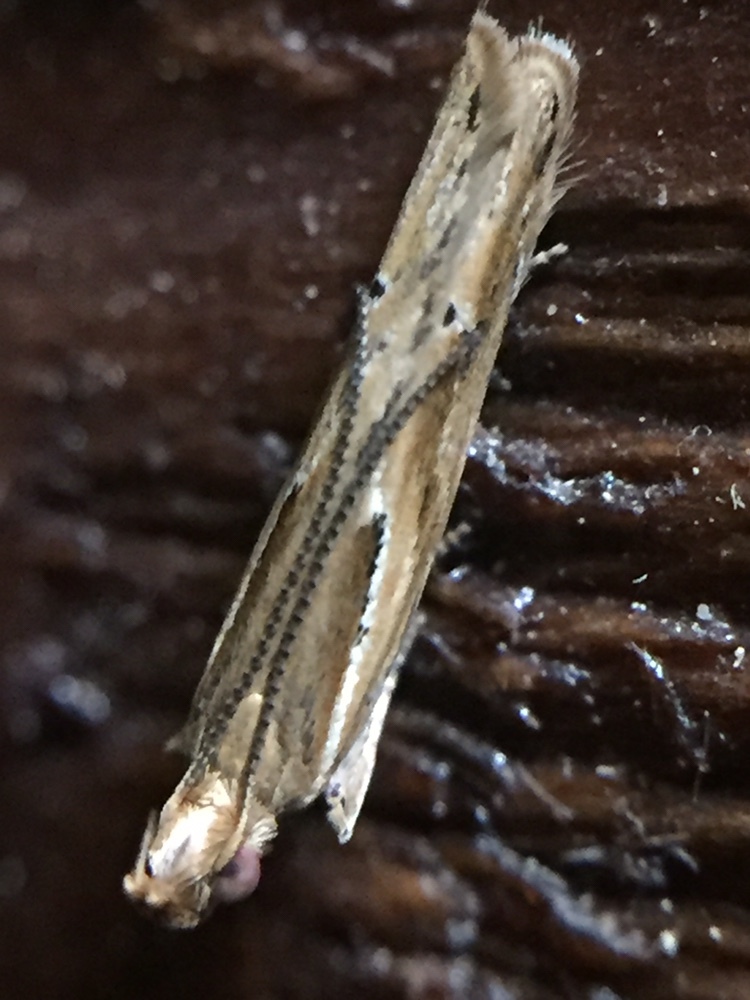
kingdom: Animalia
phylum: Arthropoda
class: Insecta
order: Lepidoptera
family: Depressariidae
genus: Eutorna
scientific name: Eutorna symmorpha
